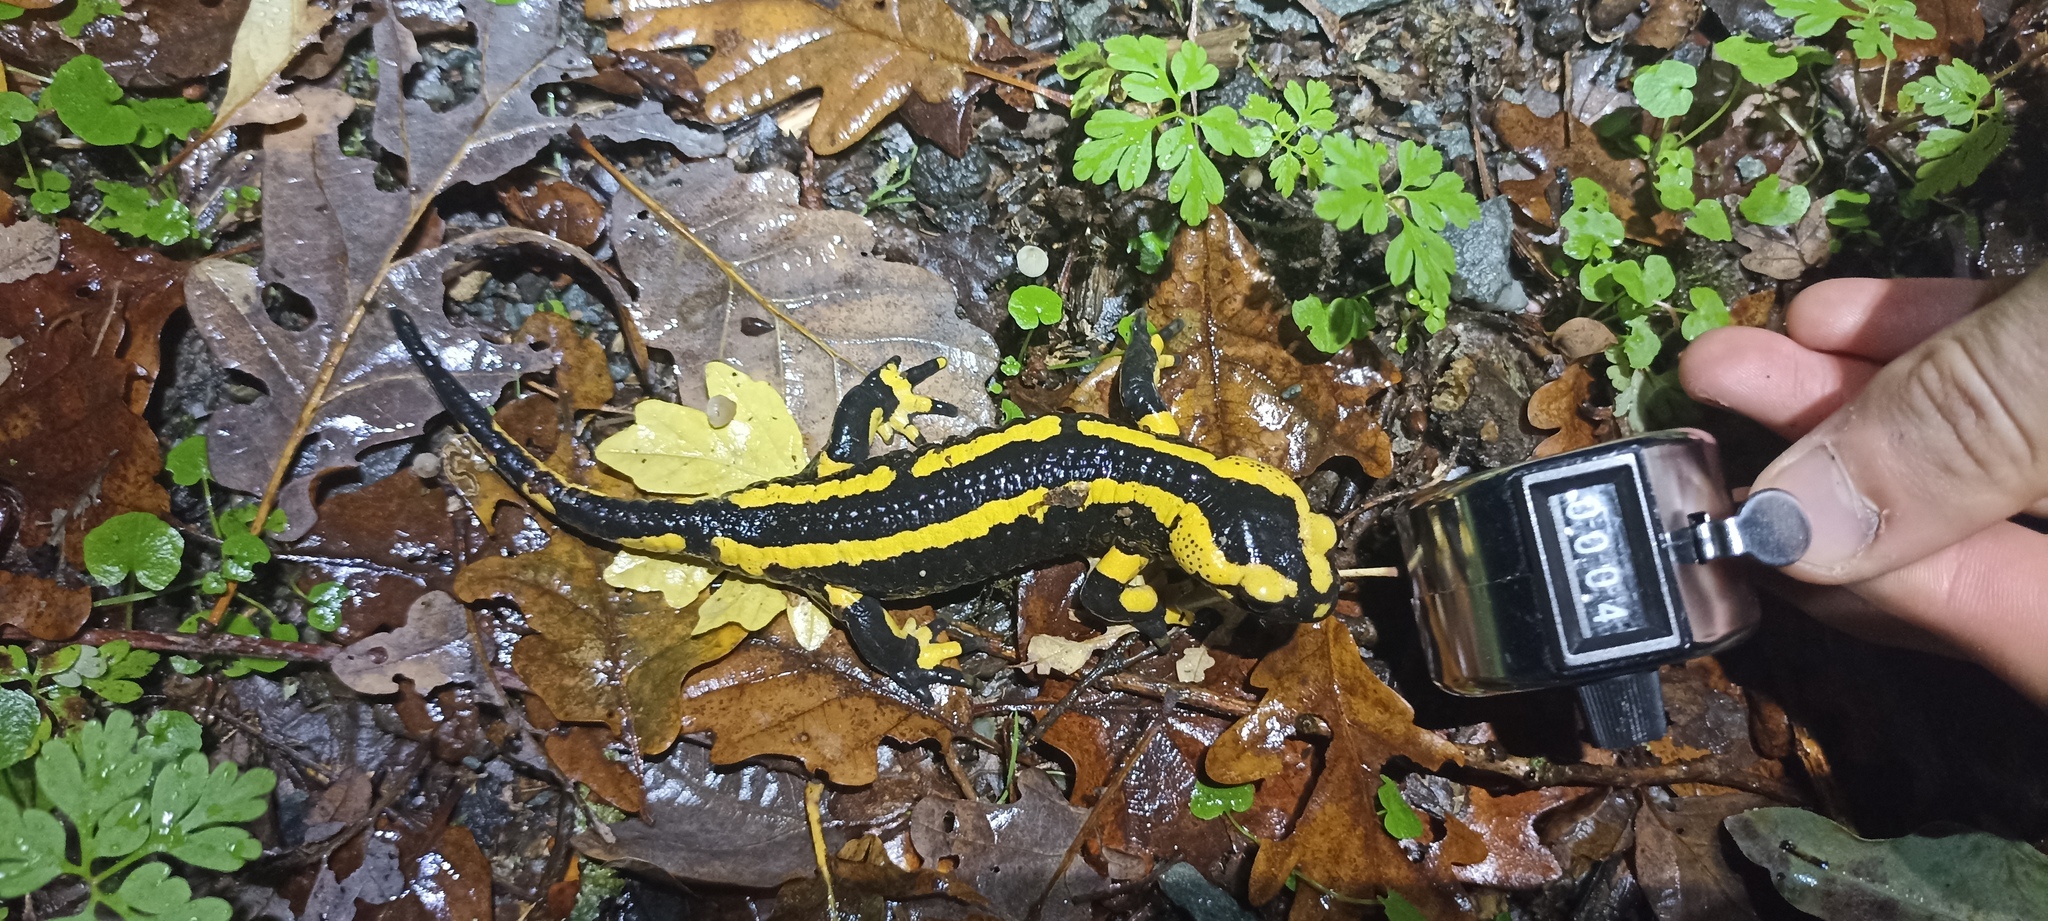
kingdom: Animalia
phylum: Chordata
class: Amphibia
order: Caudata
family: Salamandridae
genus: Salamandra
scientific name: Salamandra salamandra
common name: Fire salamander
